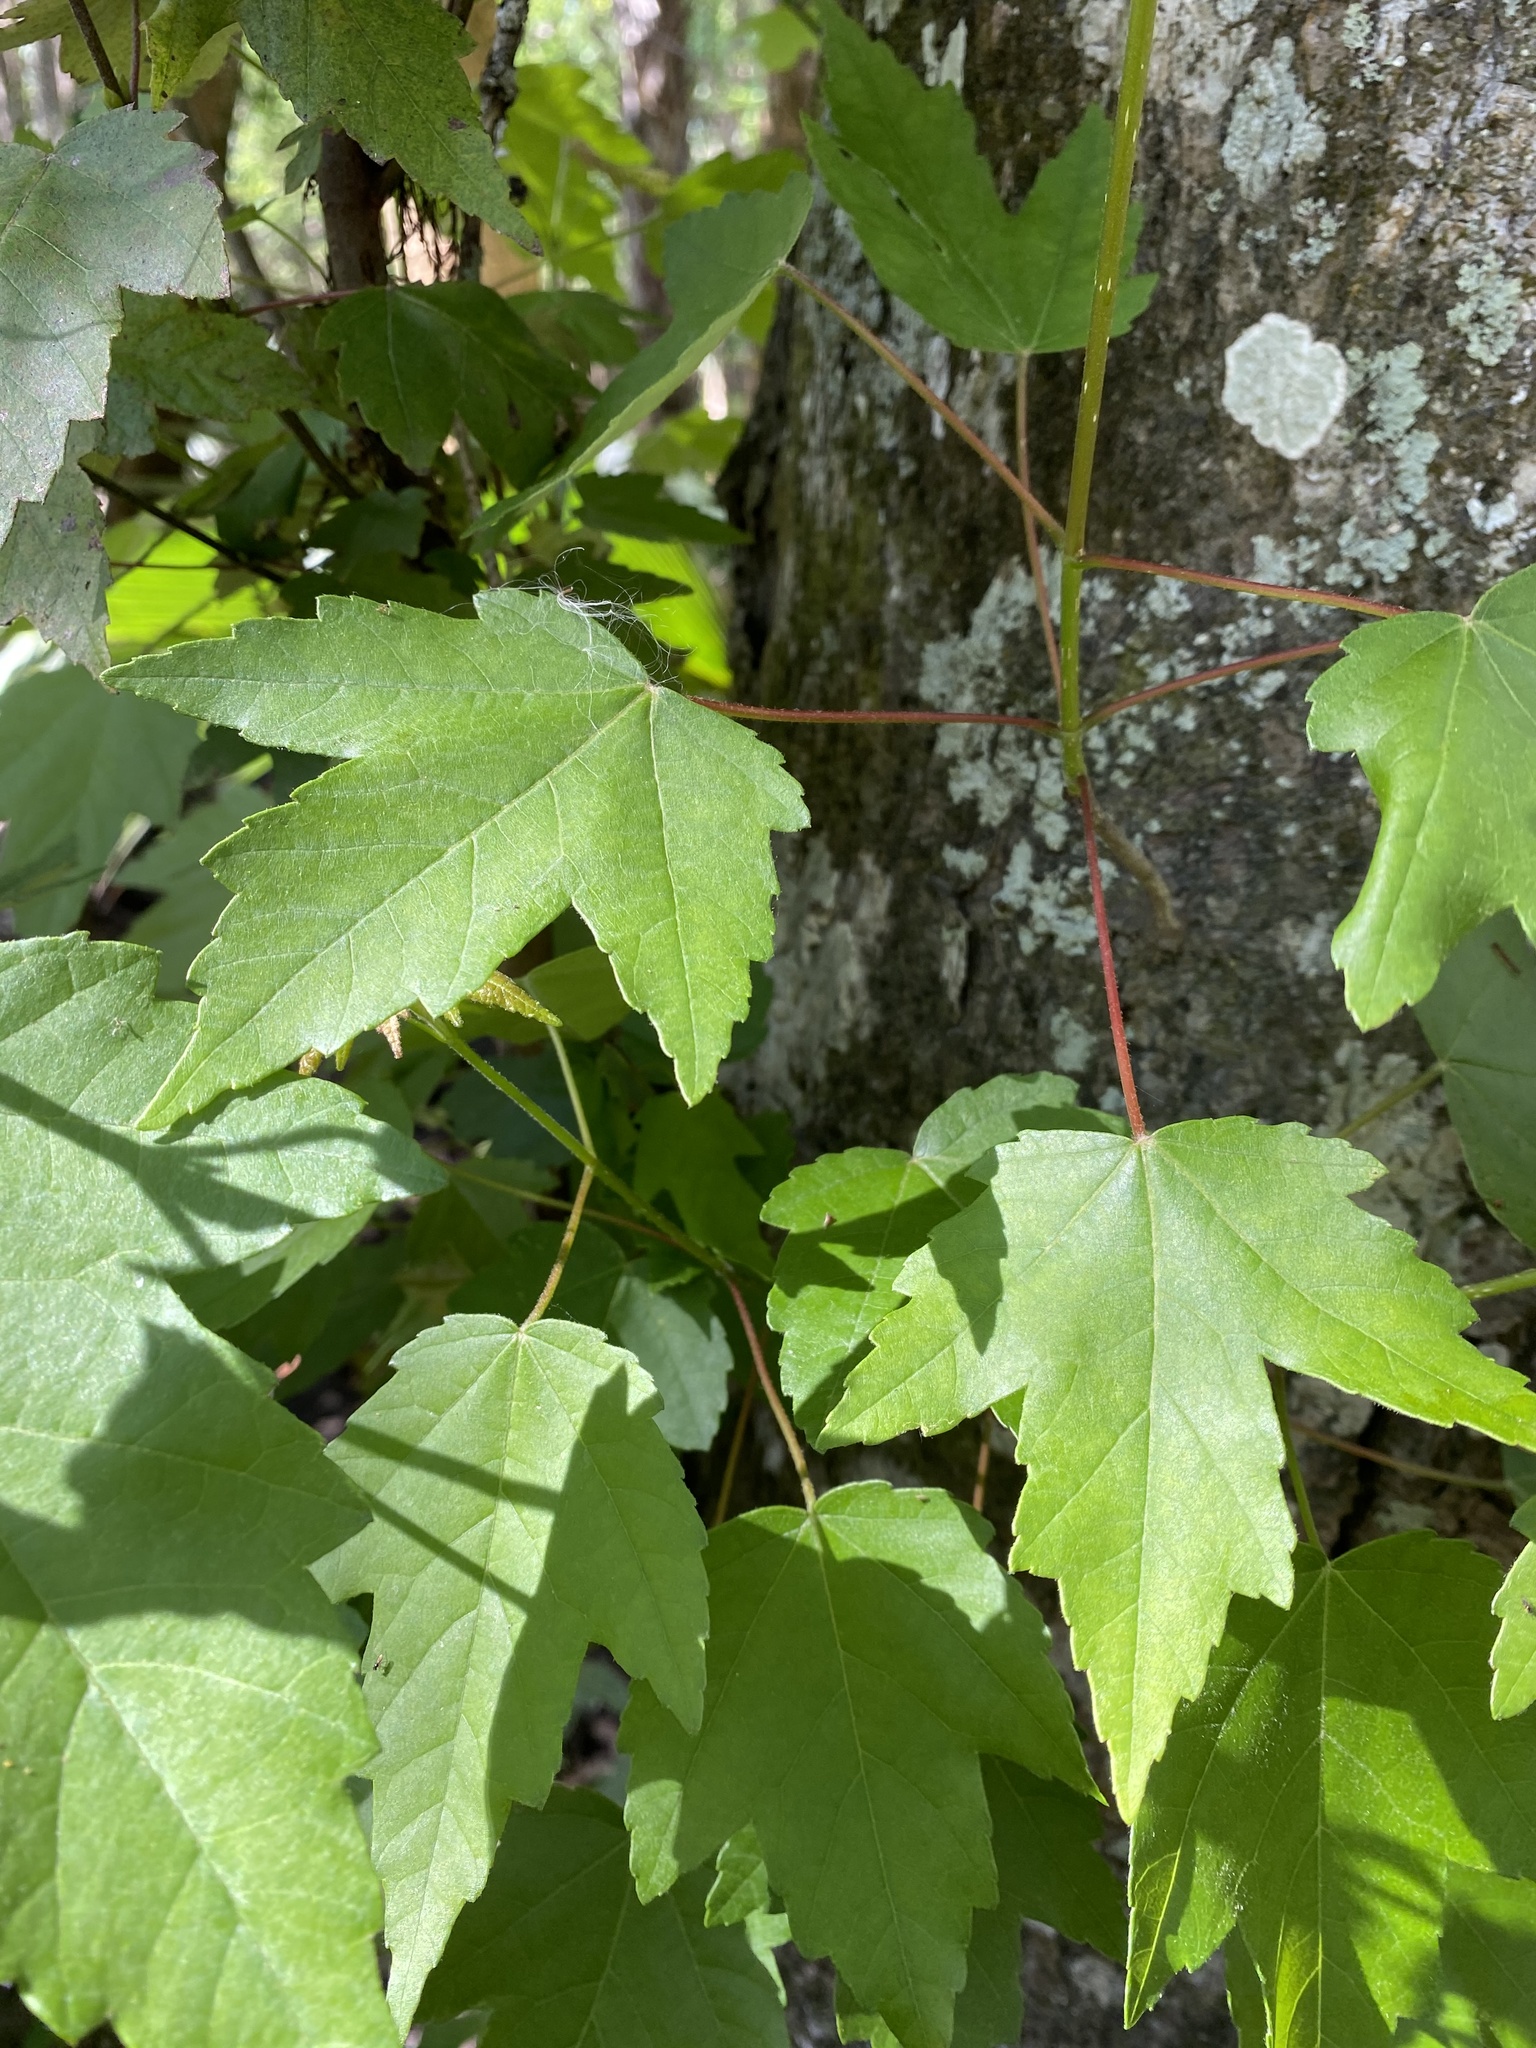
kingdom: Plantae
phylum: Tracheophyta
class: Magnoliopsida
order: Sapindales
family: Sapindaceae
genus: Acer
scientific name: Acer rubrum
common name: Red maple
